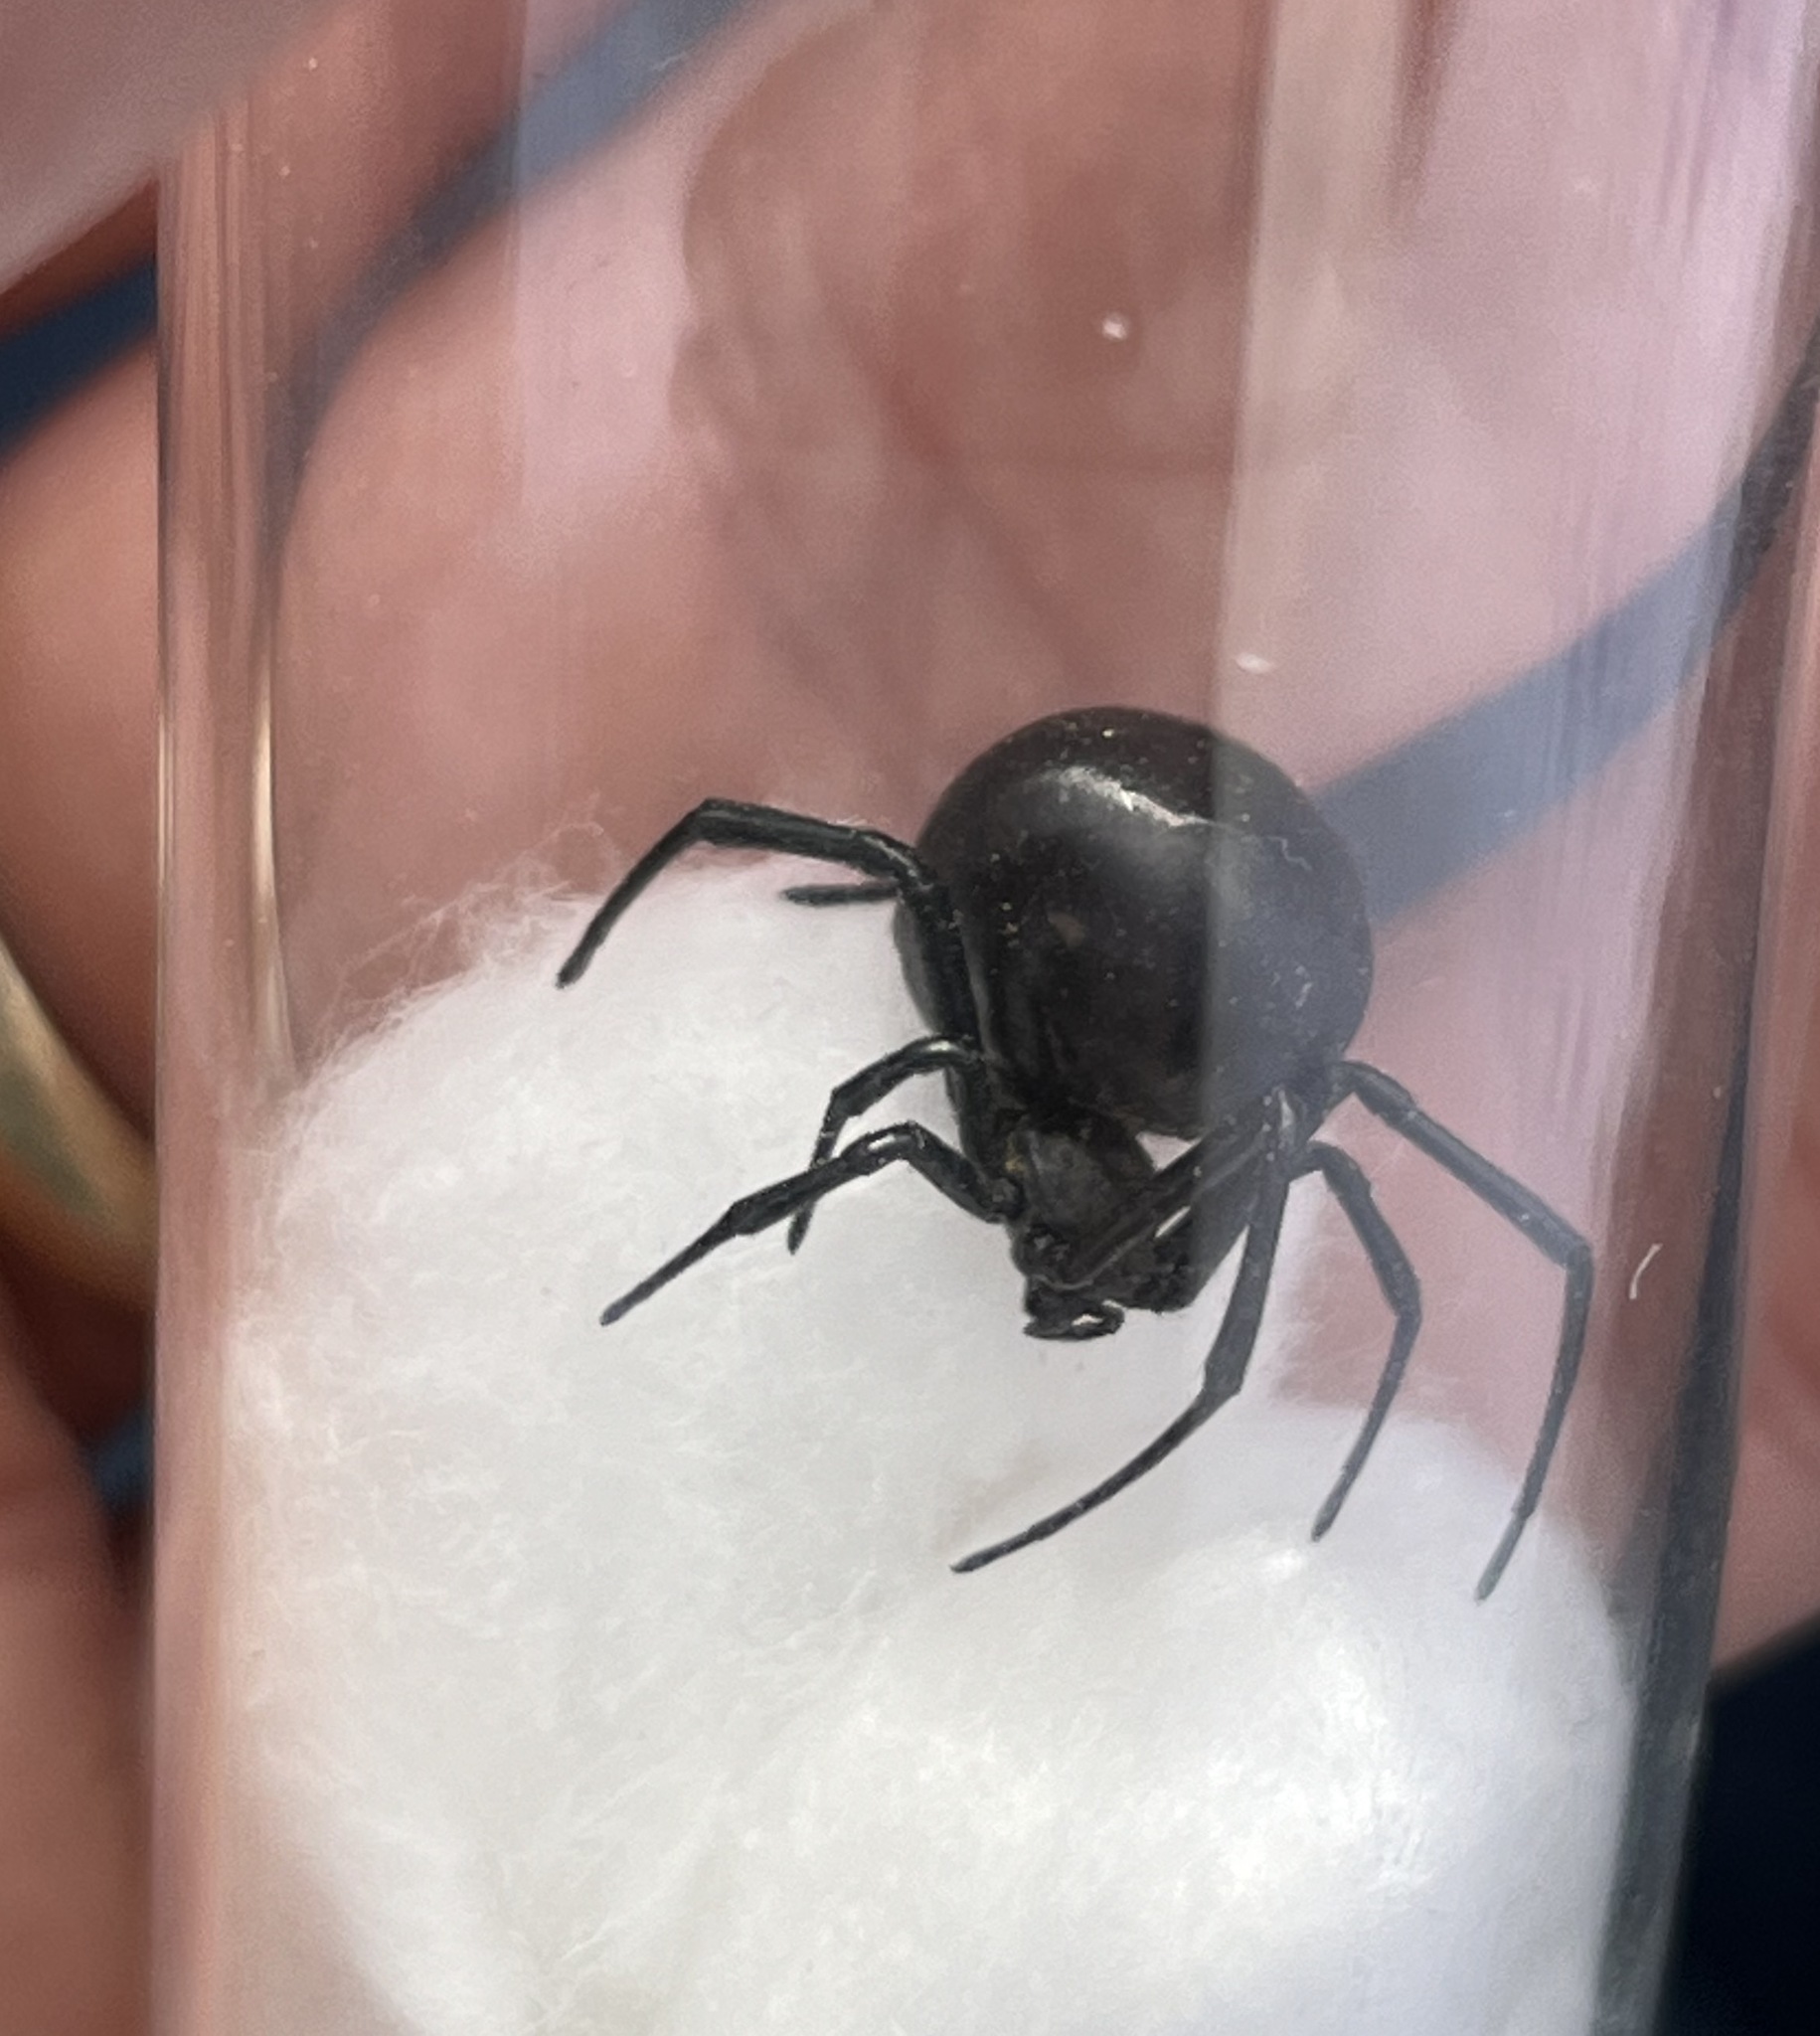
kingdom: Animalia
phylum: Arthropoda
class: Arachnida
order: Araneae
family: Theridiidae
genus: Latrodectus
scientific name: Latrodectus revivensis
